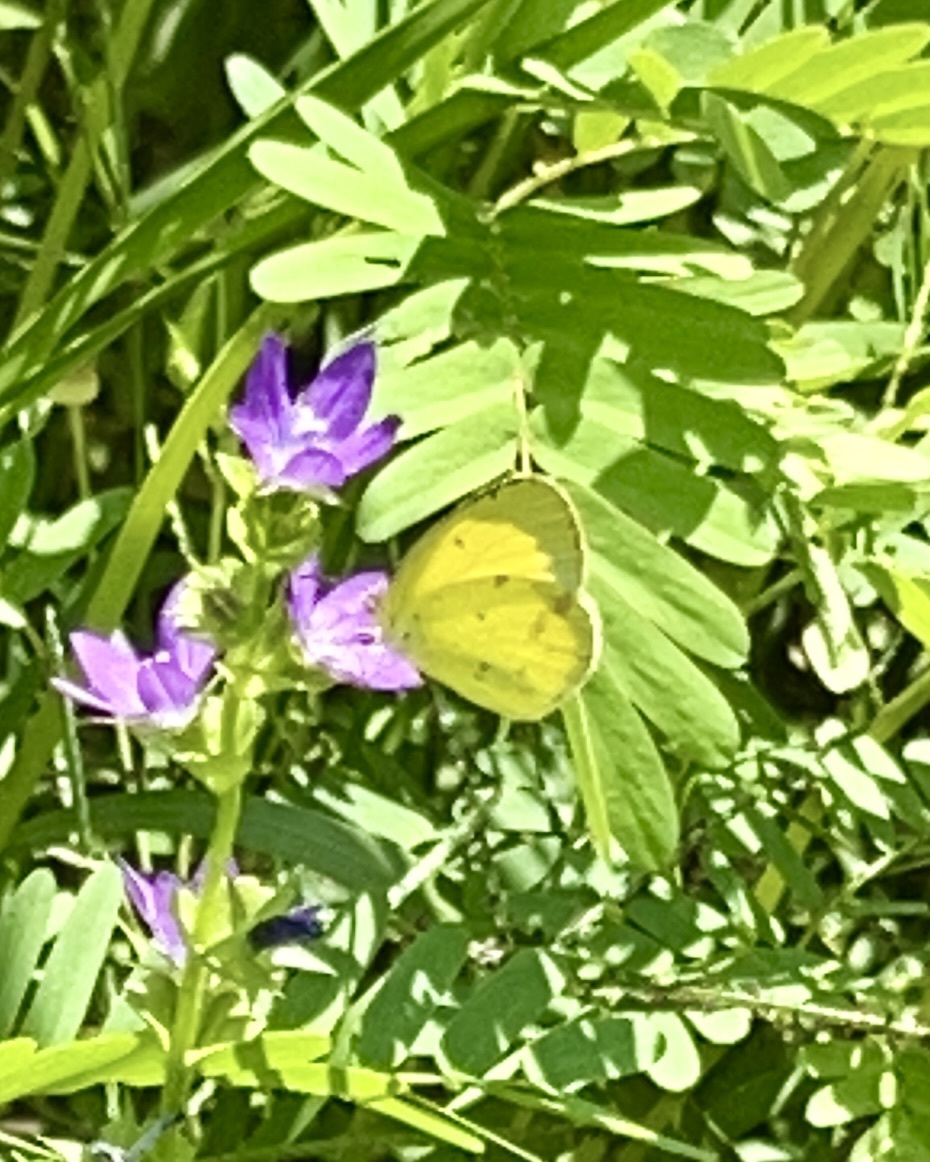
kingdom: Animalia
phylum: Arthropoda
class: Insecta
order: Lepidoptera
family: Pieridae
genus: Pyrisitia
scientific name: Pyrisitia lisa
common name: Little yellow
